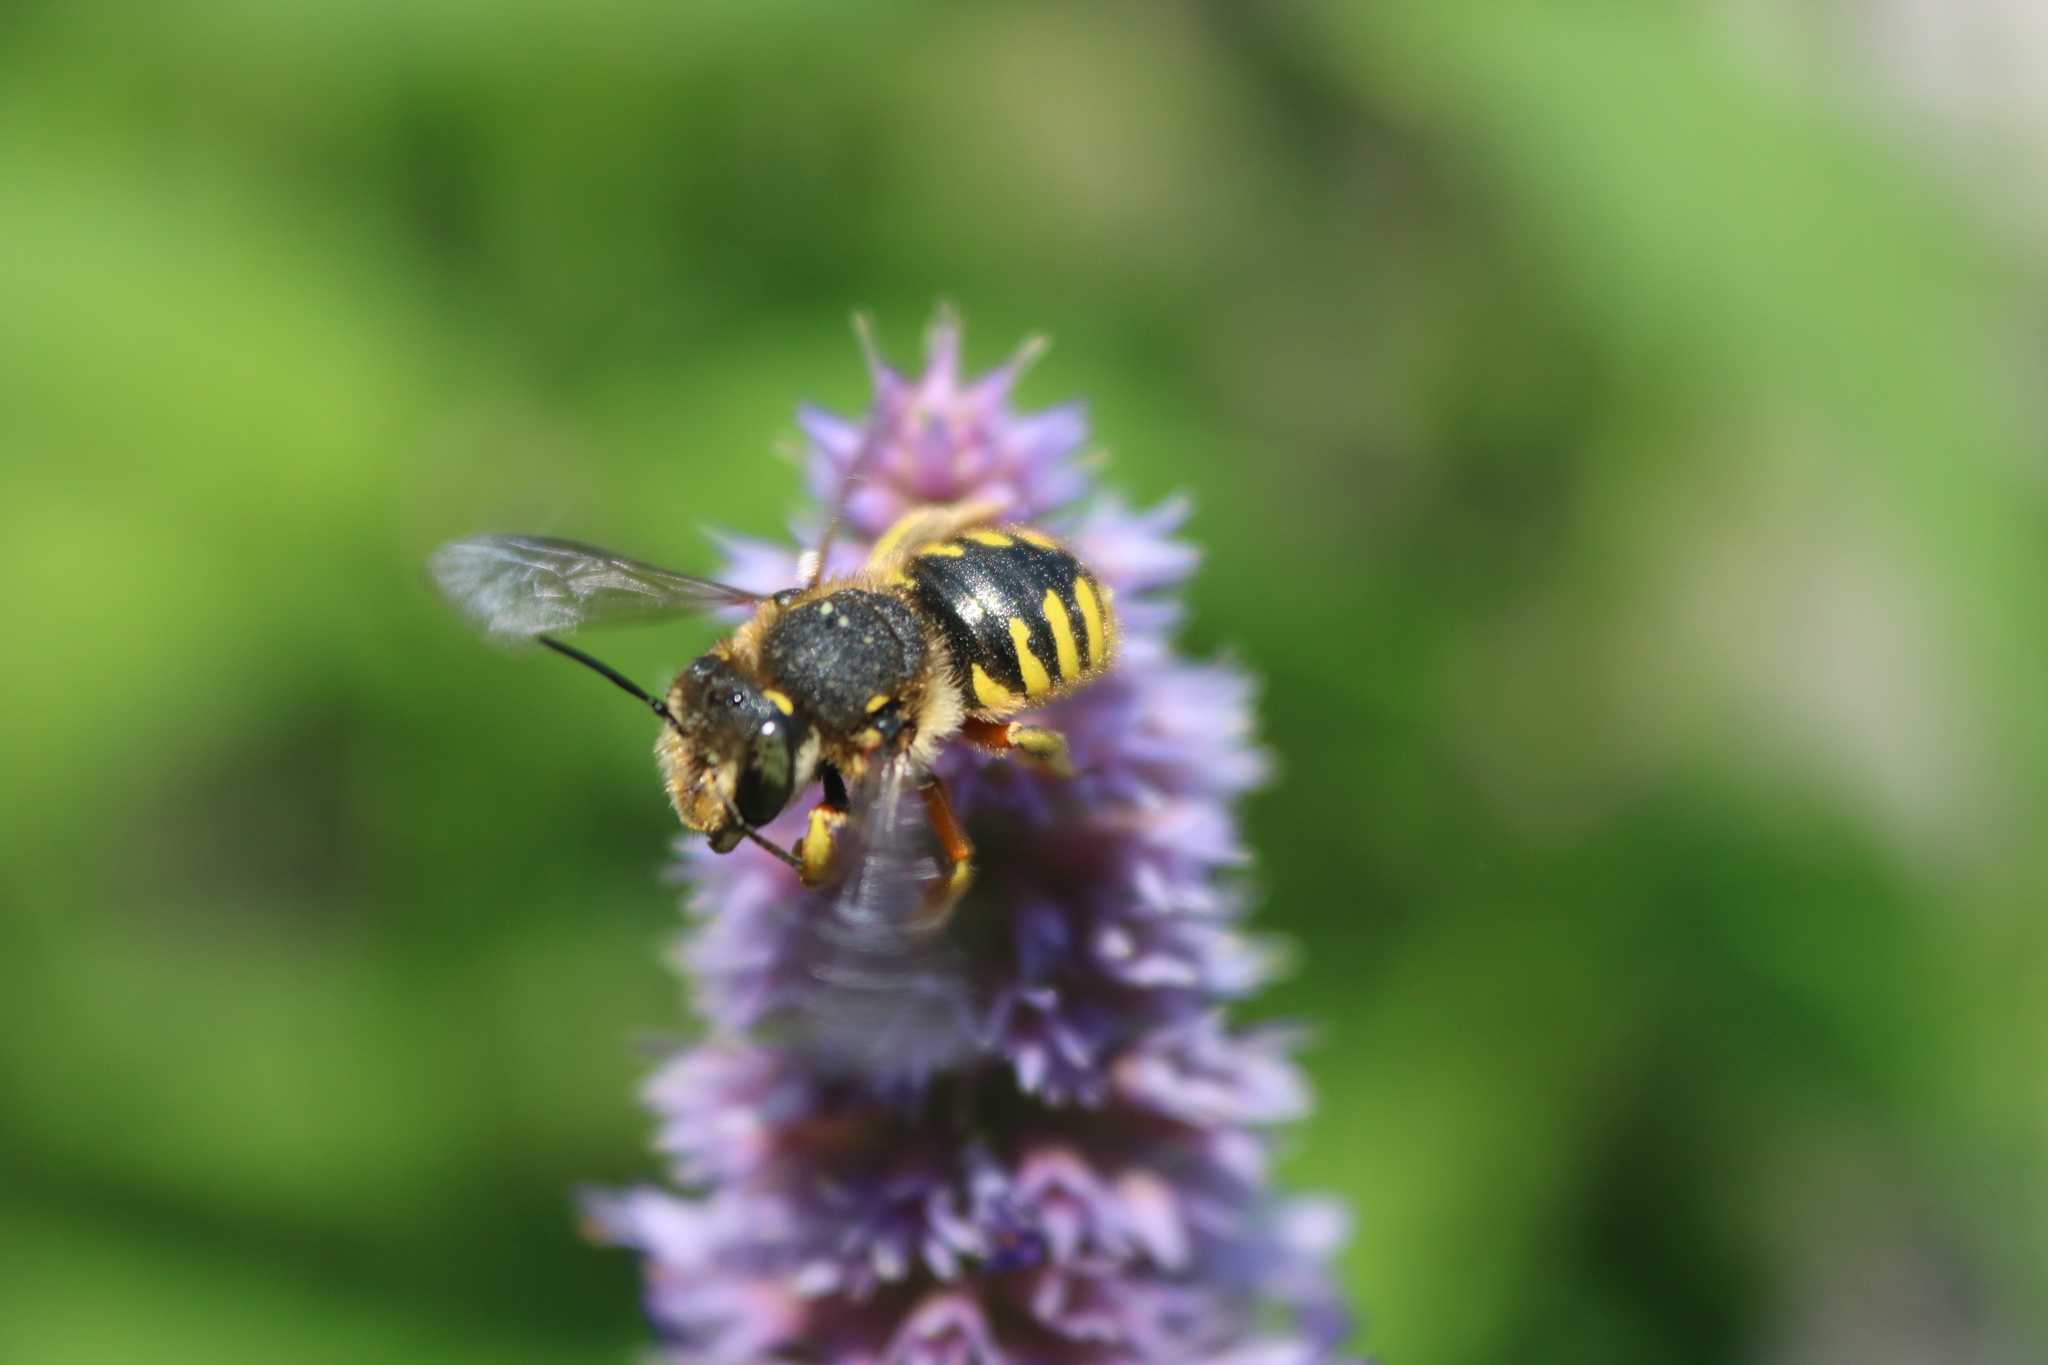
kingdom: Animalia
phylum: Arthropoda
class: Insecta
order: Hymenoptera
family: Megachilidae
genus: Anthidium
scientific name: Anthidium manicatum
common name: Wool carder bee
